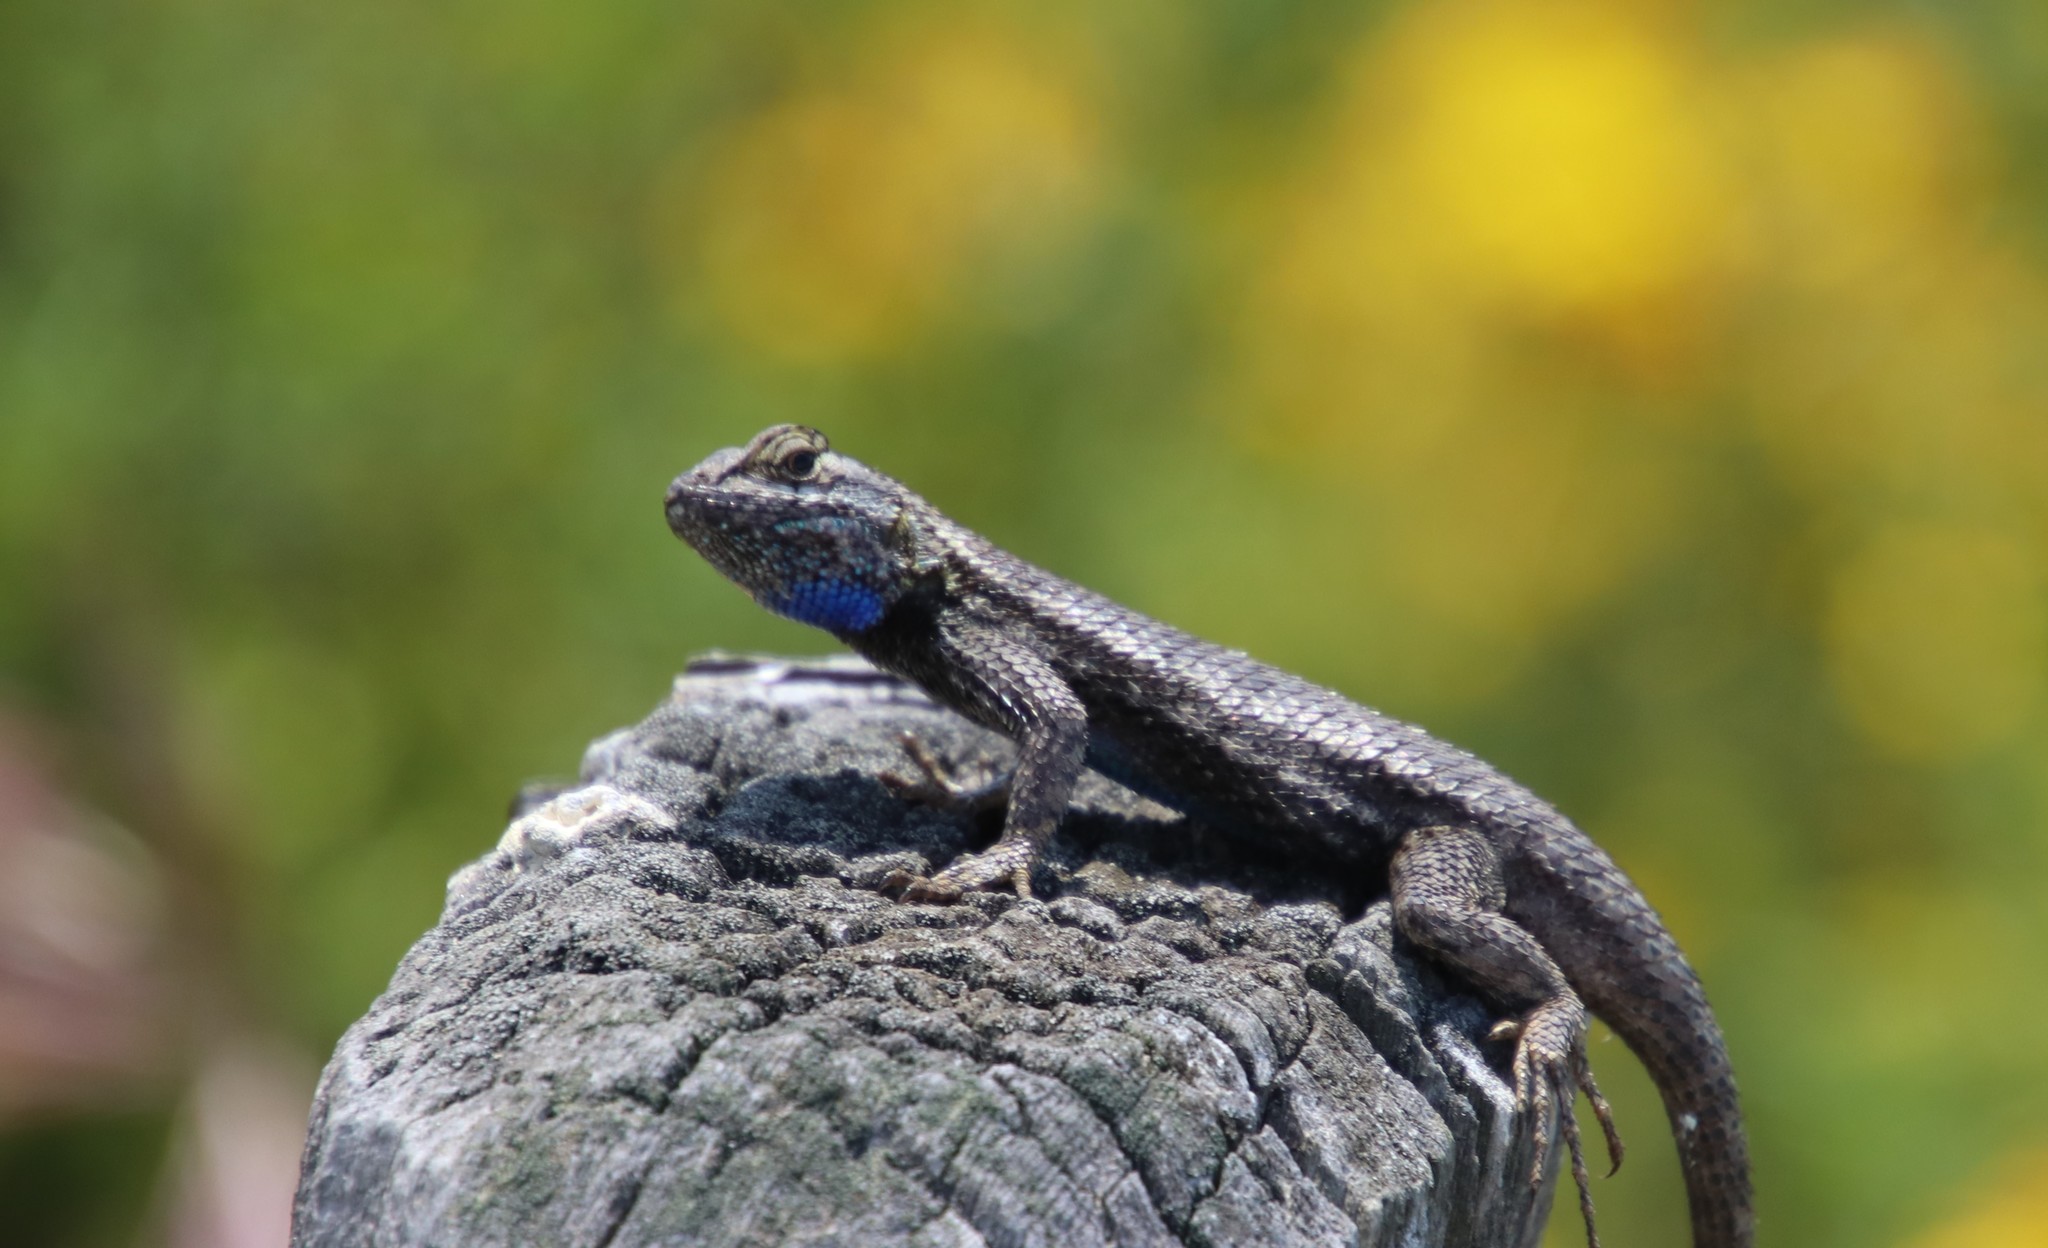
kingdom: Animalia
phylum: Chordata
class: Squamata
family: Phrynosomatidae
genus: Sceloporus
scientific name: Sceloporus occidentalis
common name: Western fence lizard
